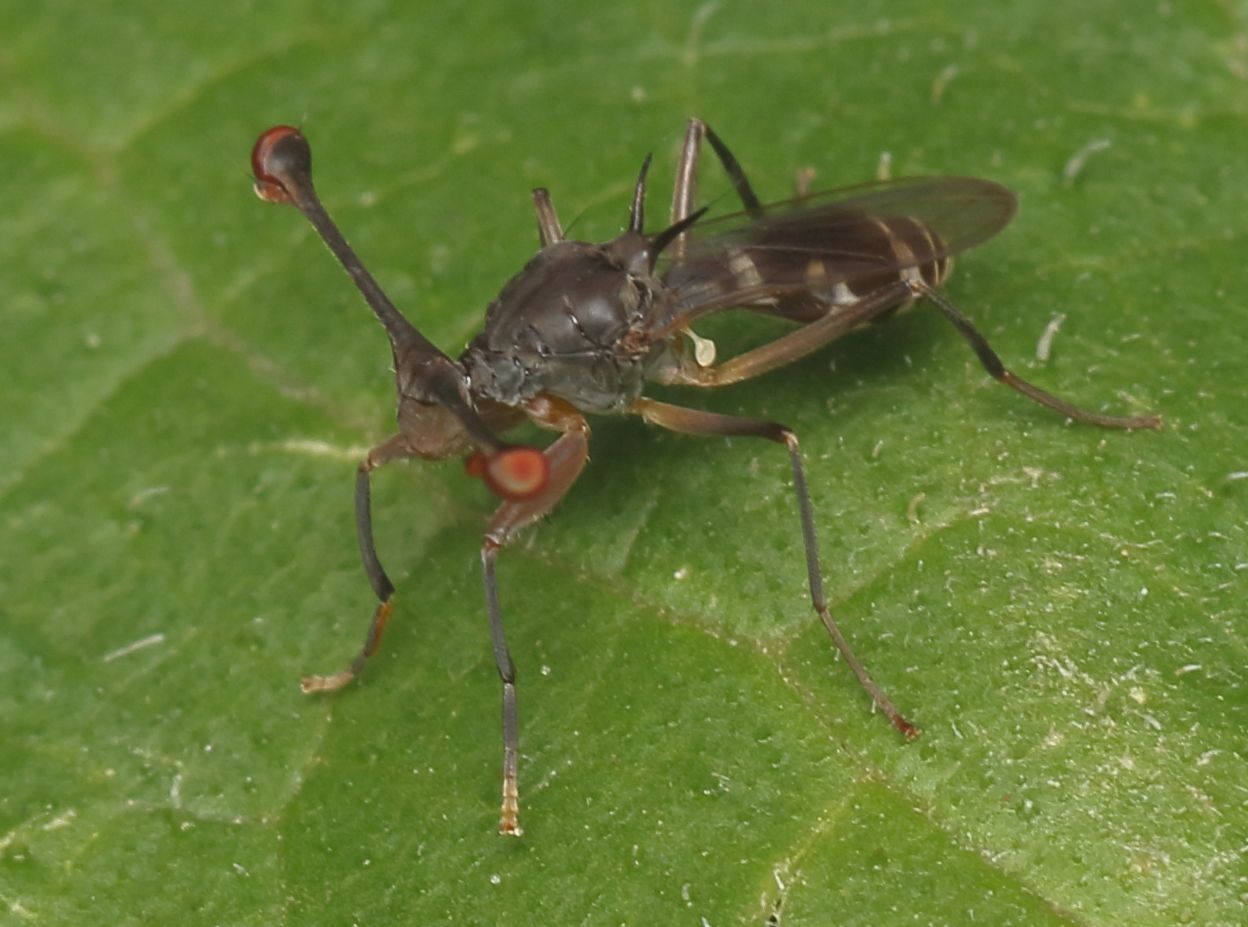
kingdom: Animalia
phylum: Arthropoda
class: Insecta
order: Diptera
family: Diopsidae
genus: Diasemopsis
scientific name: Diasemopsis aethiopica
